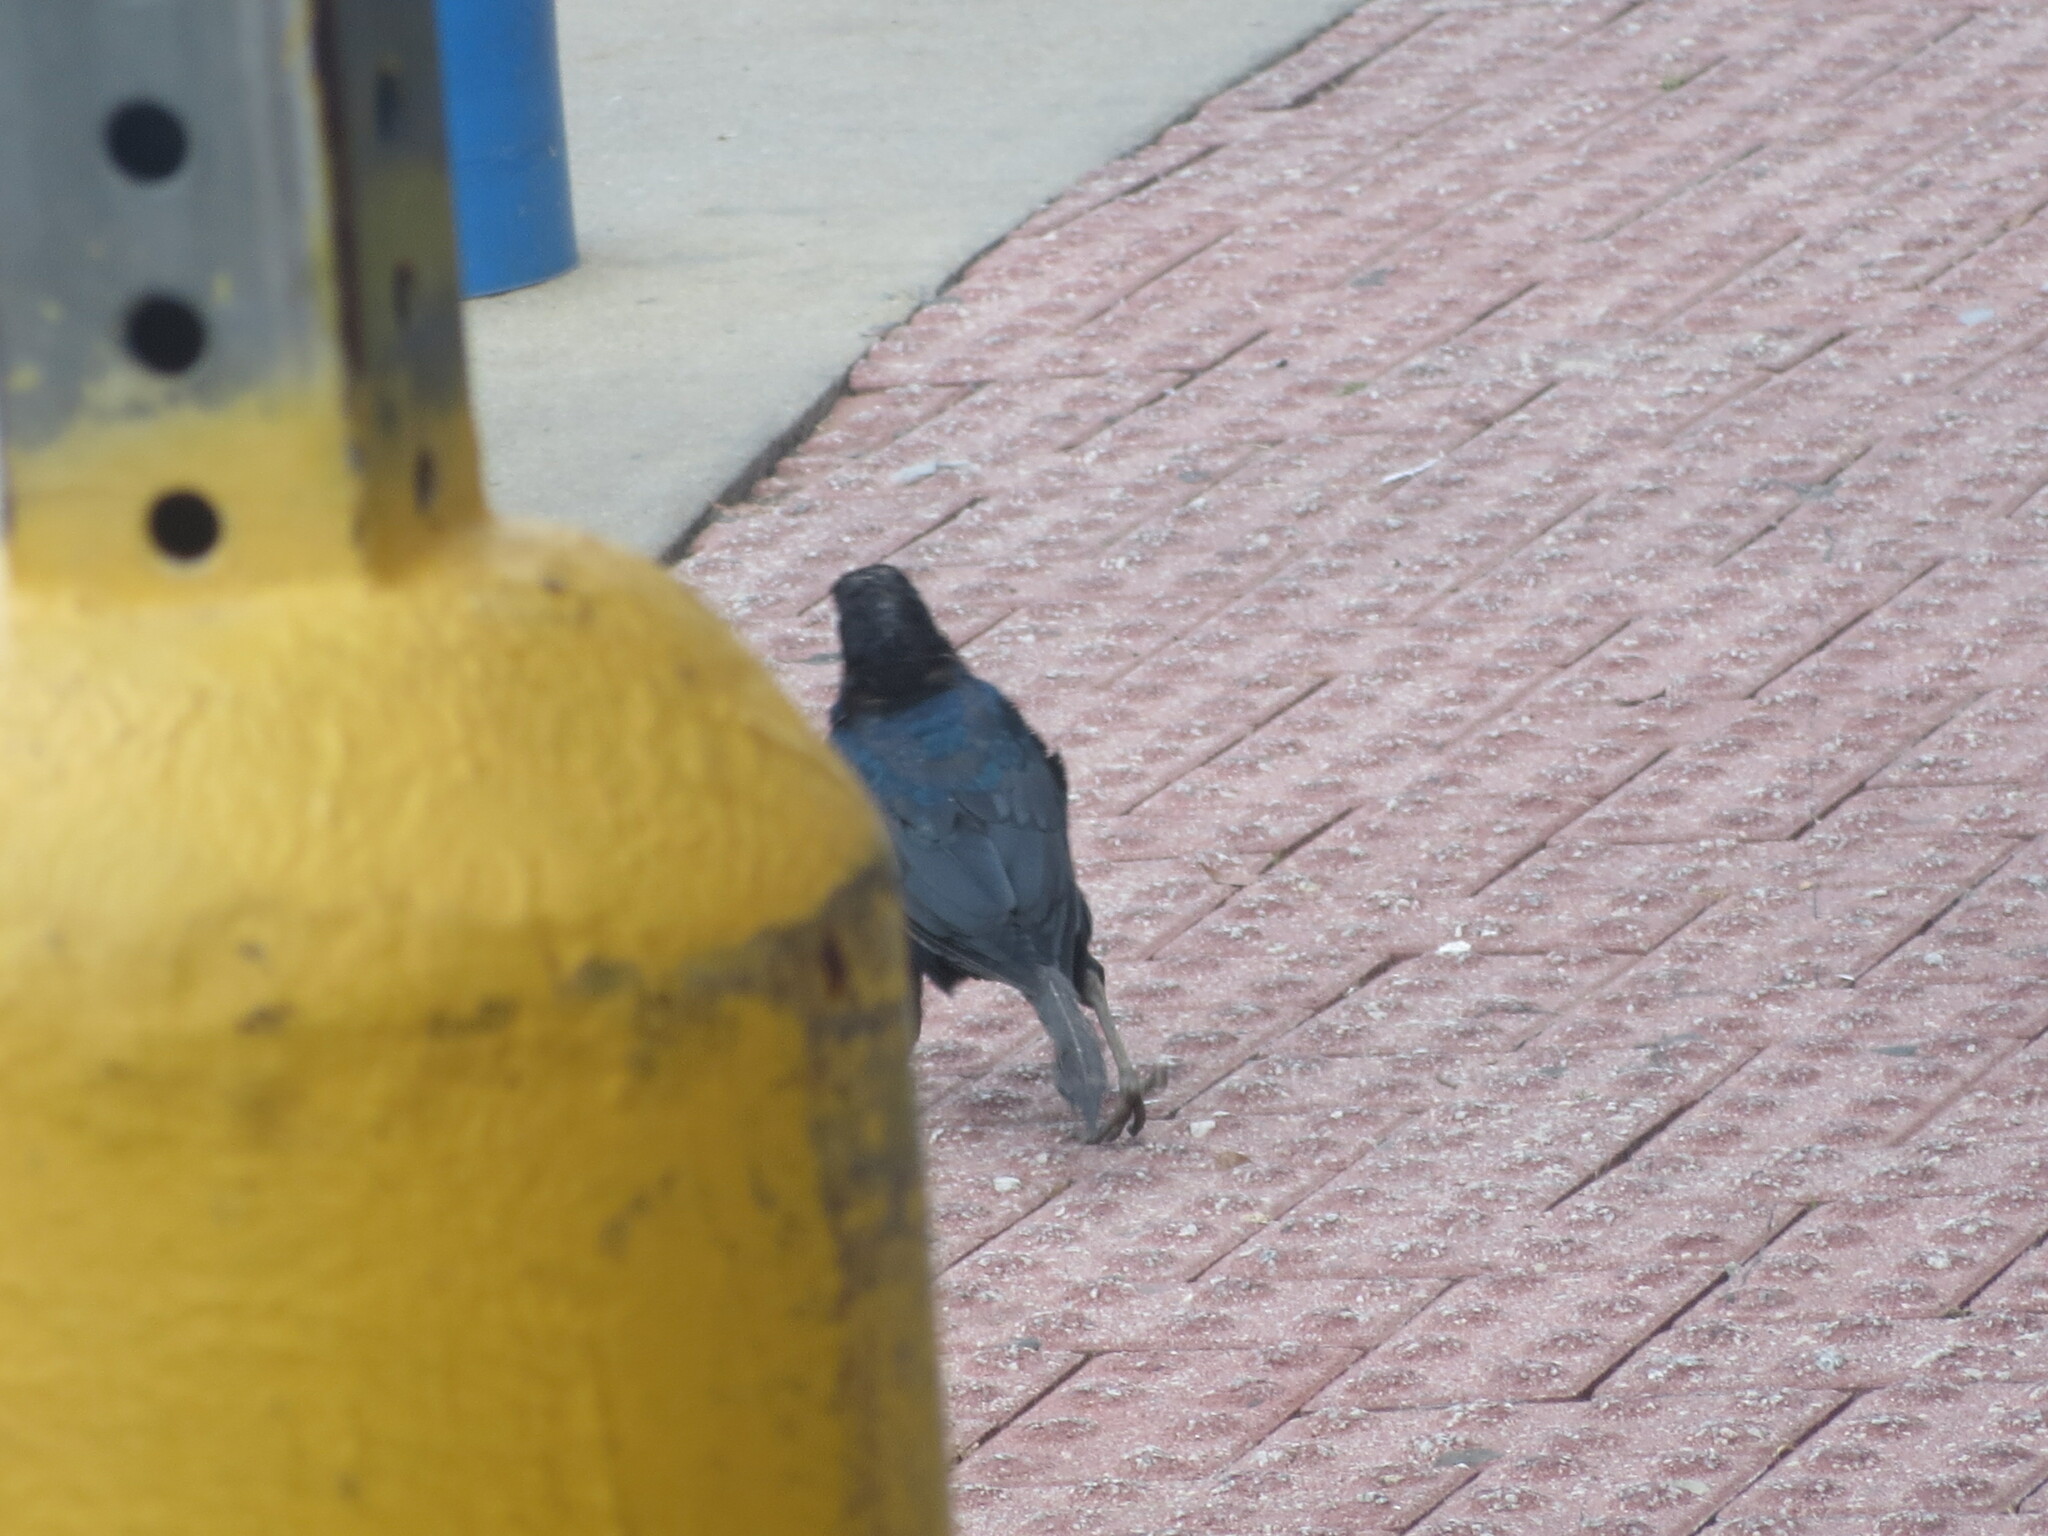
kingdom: Animalia
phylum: Chordata
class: Aves
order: Passeriformes
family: Icteridae
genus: Quiscalus
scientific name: Quiscalus major
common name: Boat-tailed grackle
